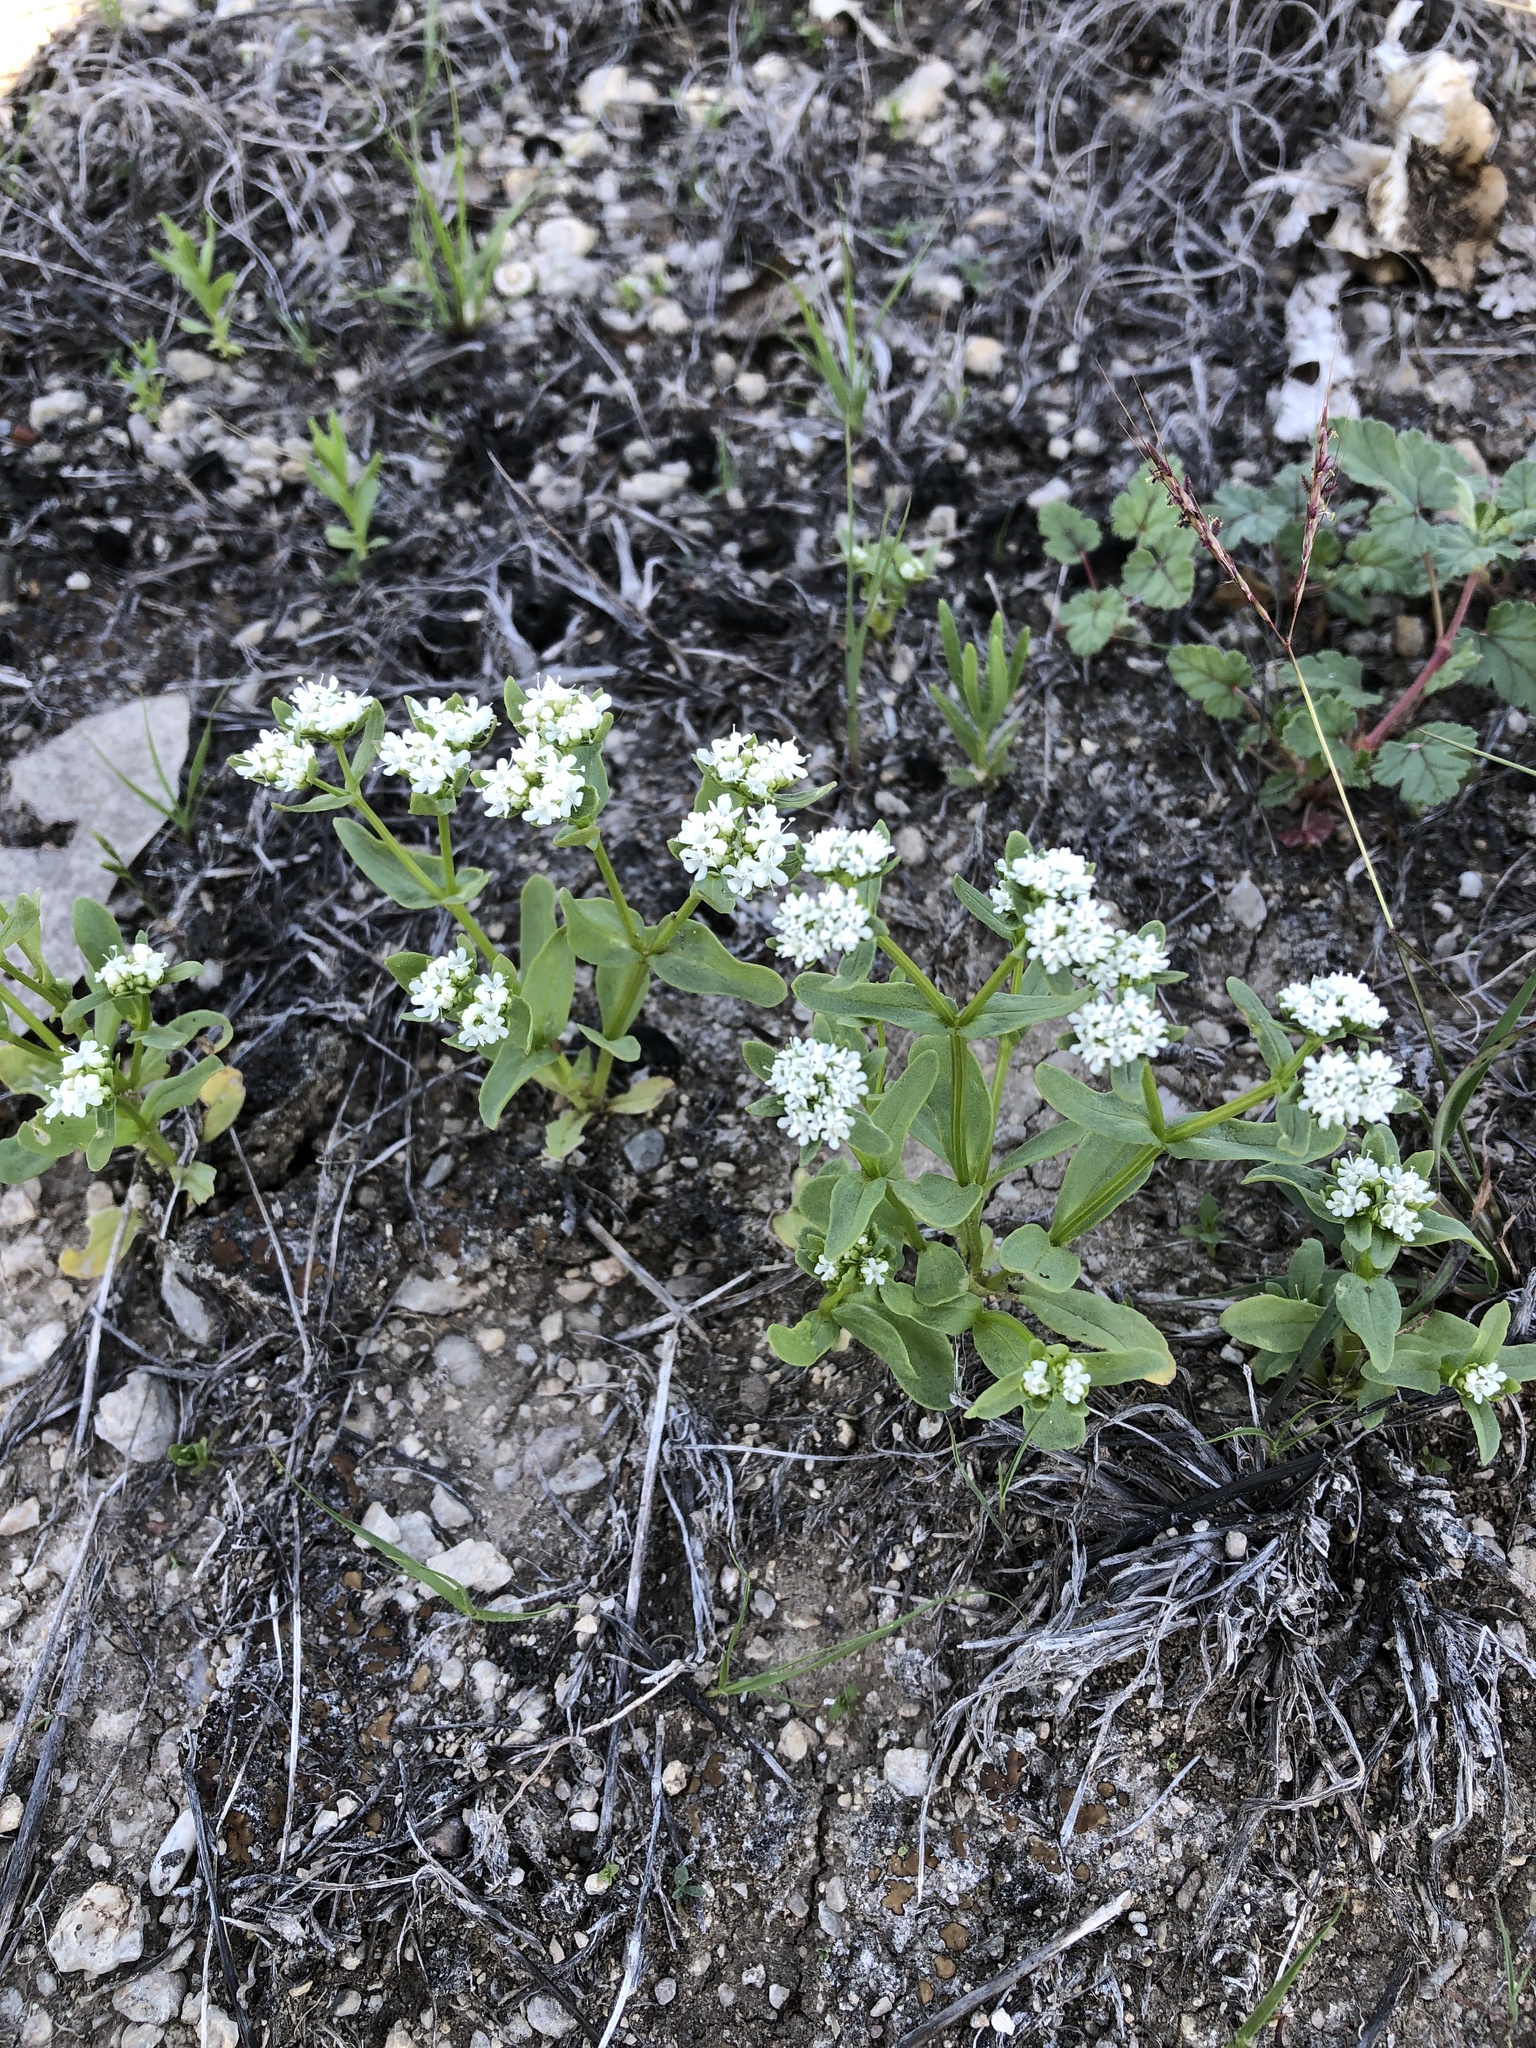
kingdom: Plantae
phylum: Tracheophyta
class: Magnoliopsida
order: Dipsacales
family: Caprifoliaceae
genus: Valerianella
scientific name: Valerianella amarella
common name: Hariy cornsalad
